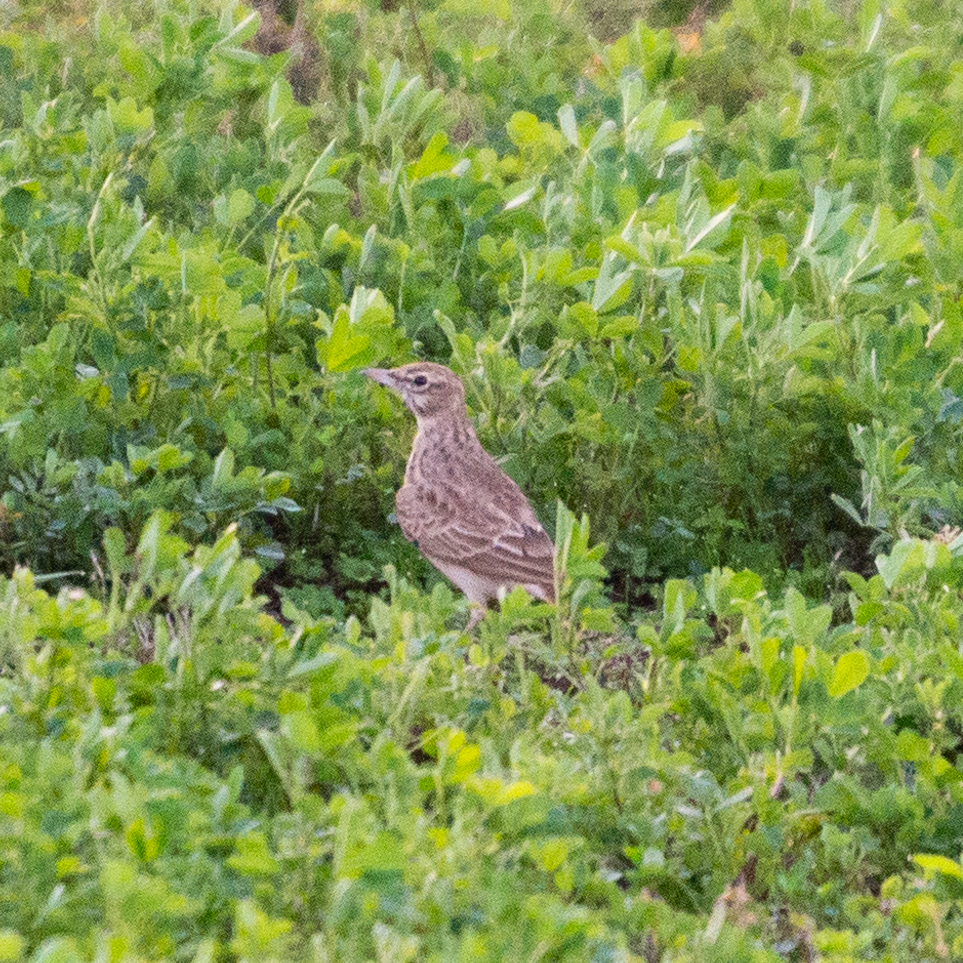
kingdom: Animalia
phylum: Chordata
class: Aves
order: Passeriformes
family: Alaudidae
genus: Galerida
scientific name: Galerida cristata
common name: Crested lark
